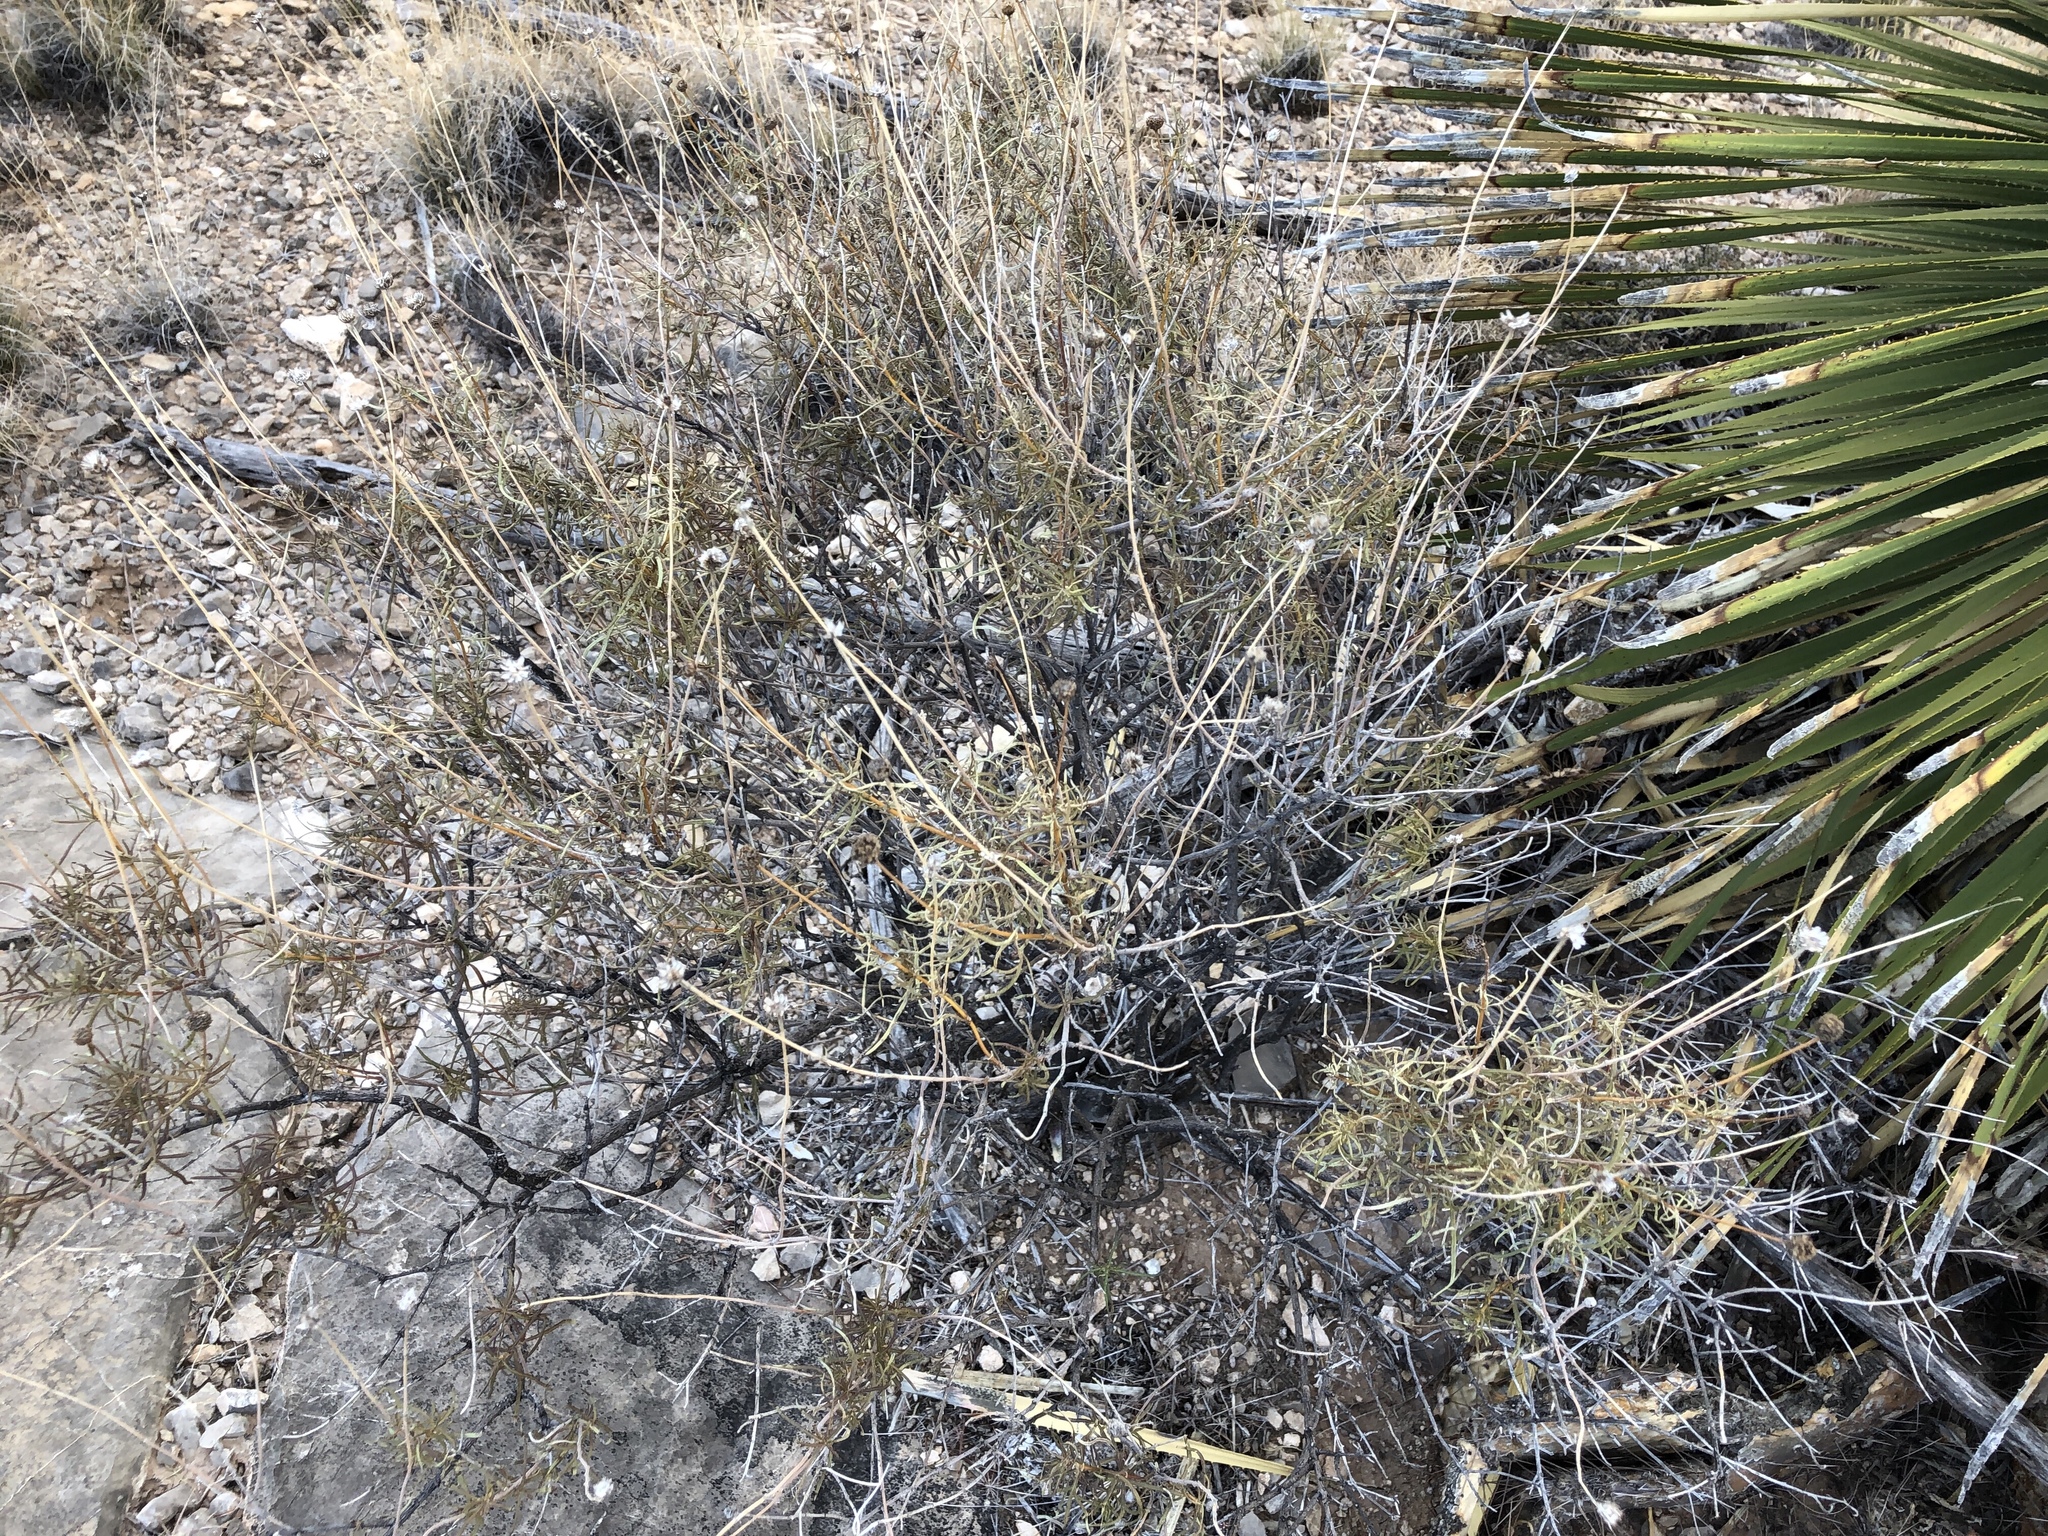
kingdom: Plantae
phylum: Tracheophyta
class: Magnoliopsida
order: Asterales
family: Asteraceae
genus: Sidneya
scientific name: Sidneya tenuifolia
